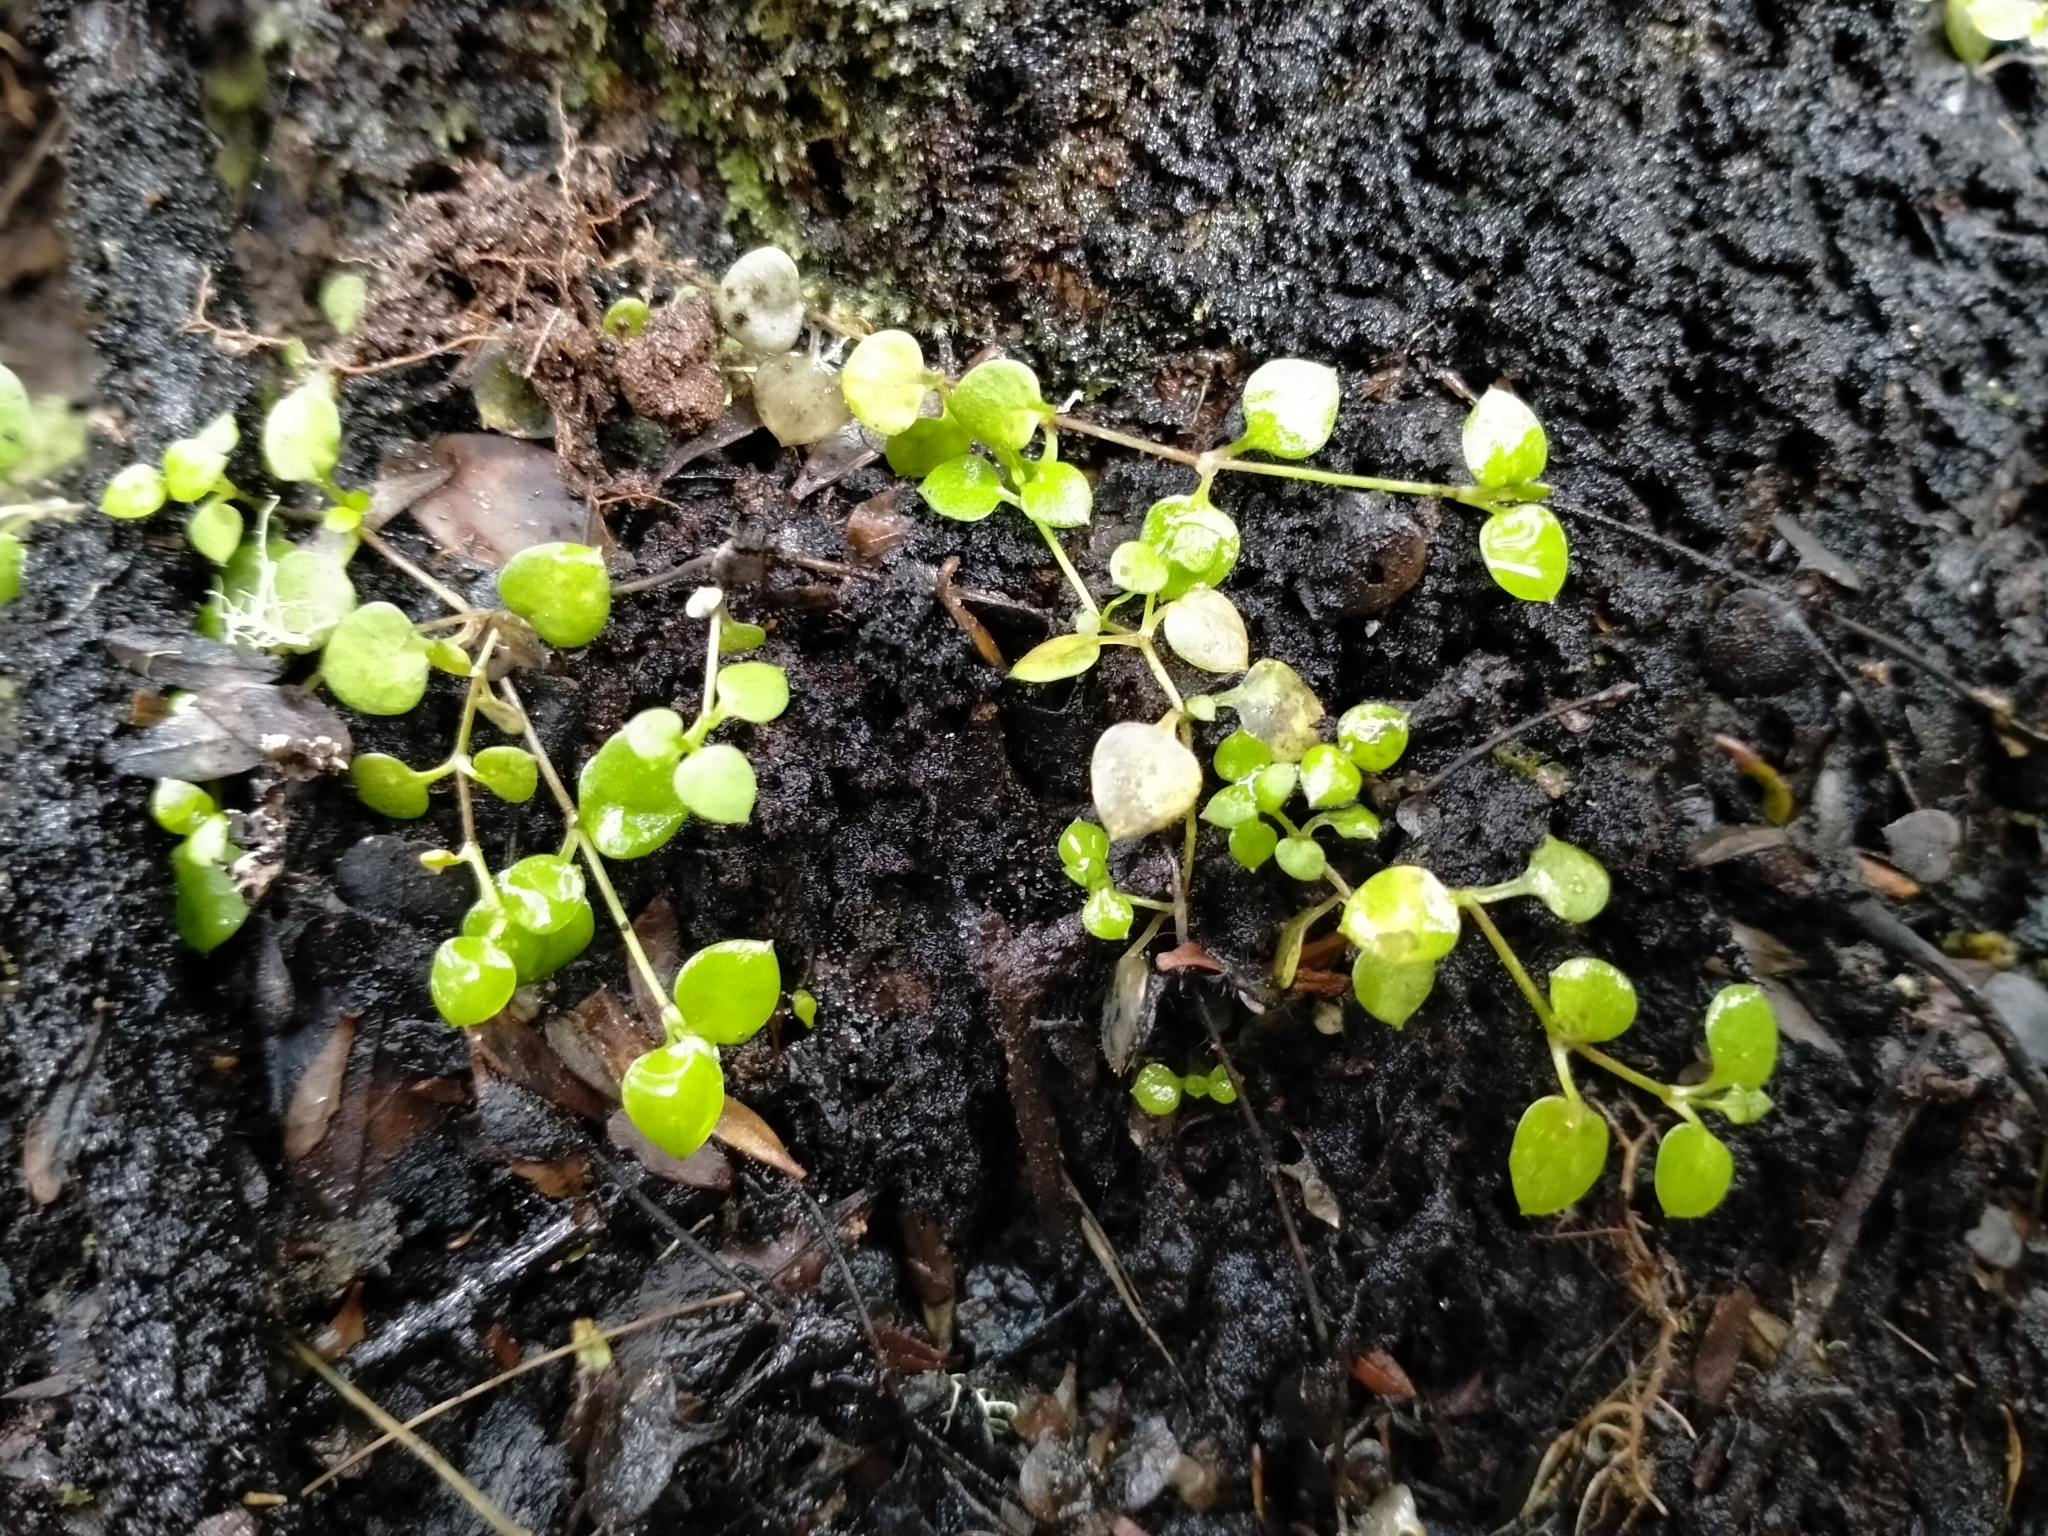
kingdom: Plantae
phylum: Tracheophyta
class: Magnoliopsida
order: Caryophyllales
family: Caryophyllaceae
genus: Stellaria
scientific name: Stellaria parviflora
